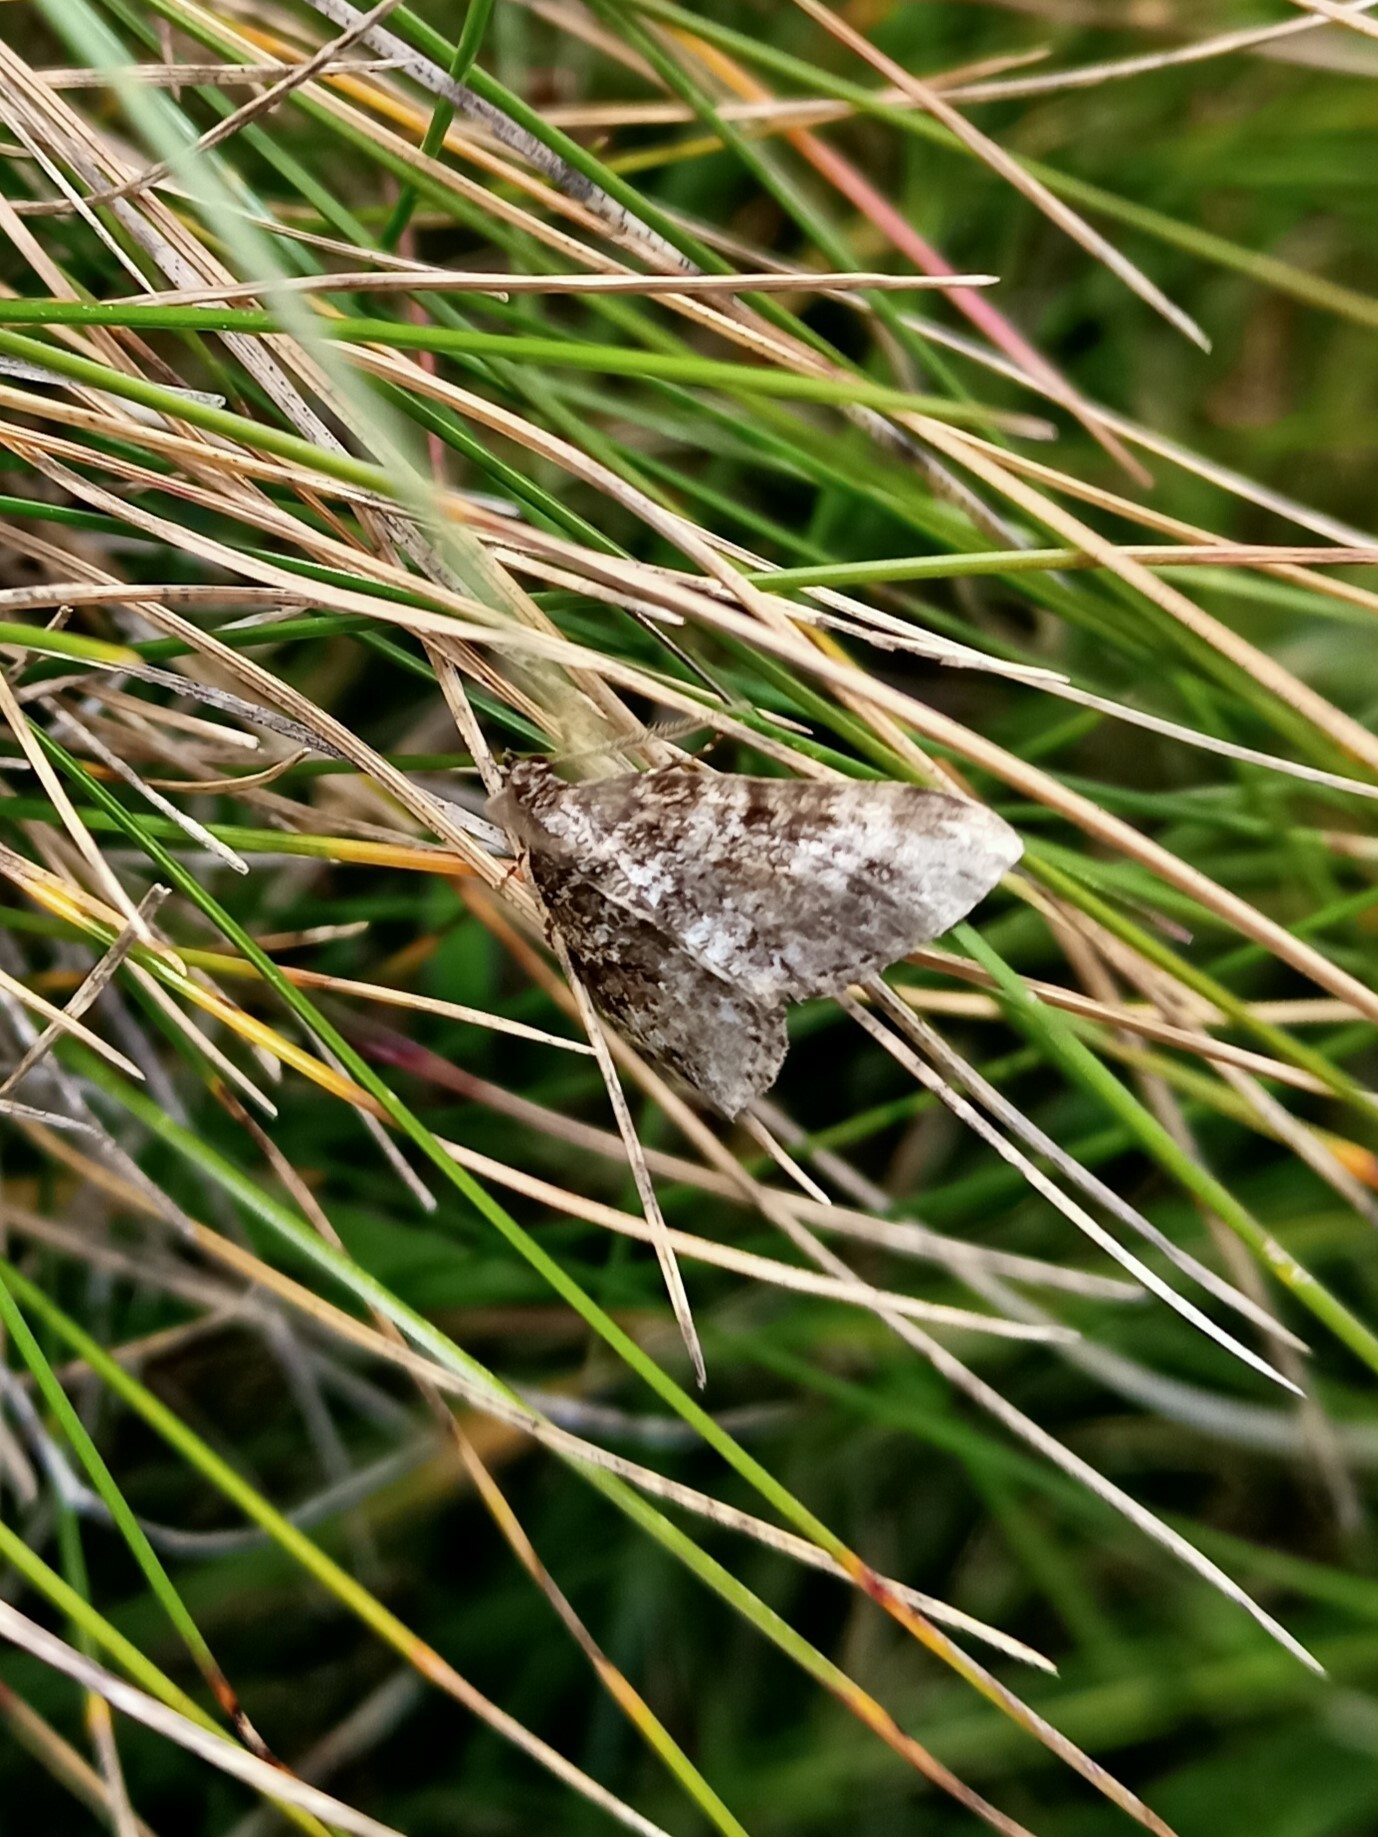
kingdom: Animalia
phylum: Arthropoda
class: Insecta
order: Lepidoptera
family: Geometridae
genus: Perizoma
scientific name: Perizoma didymata
